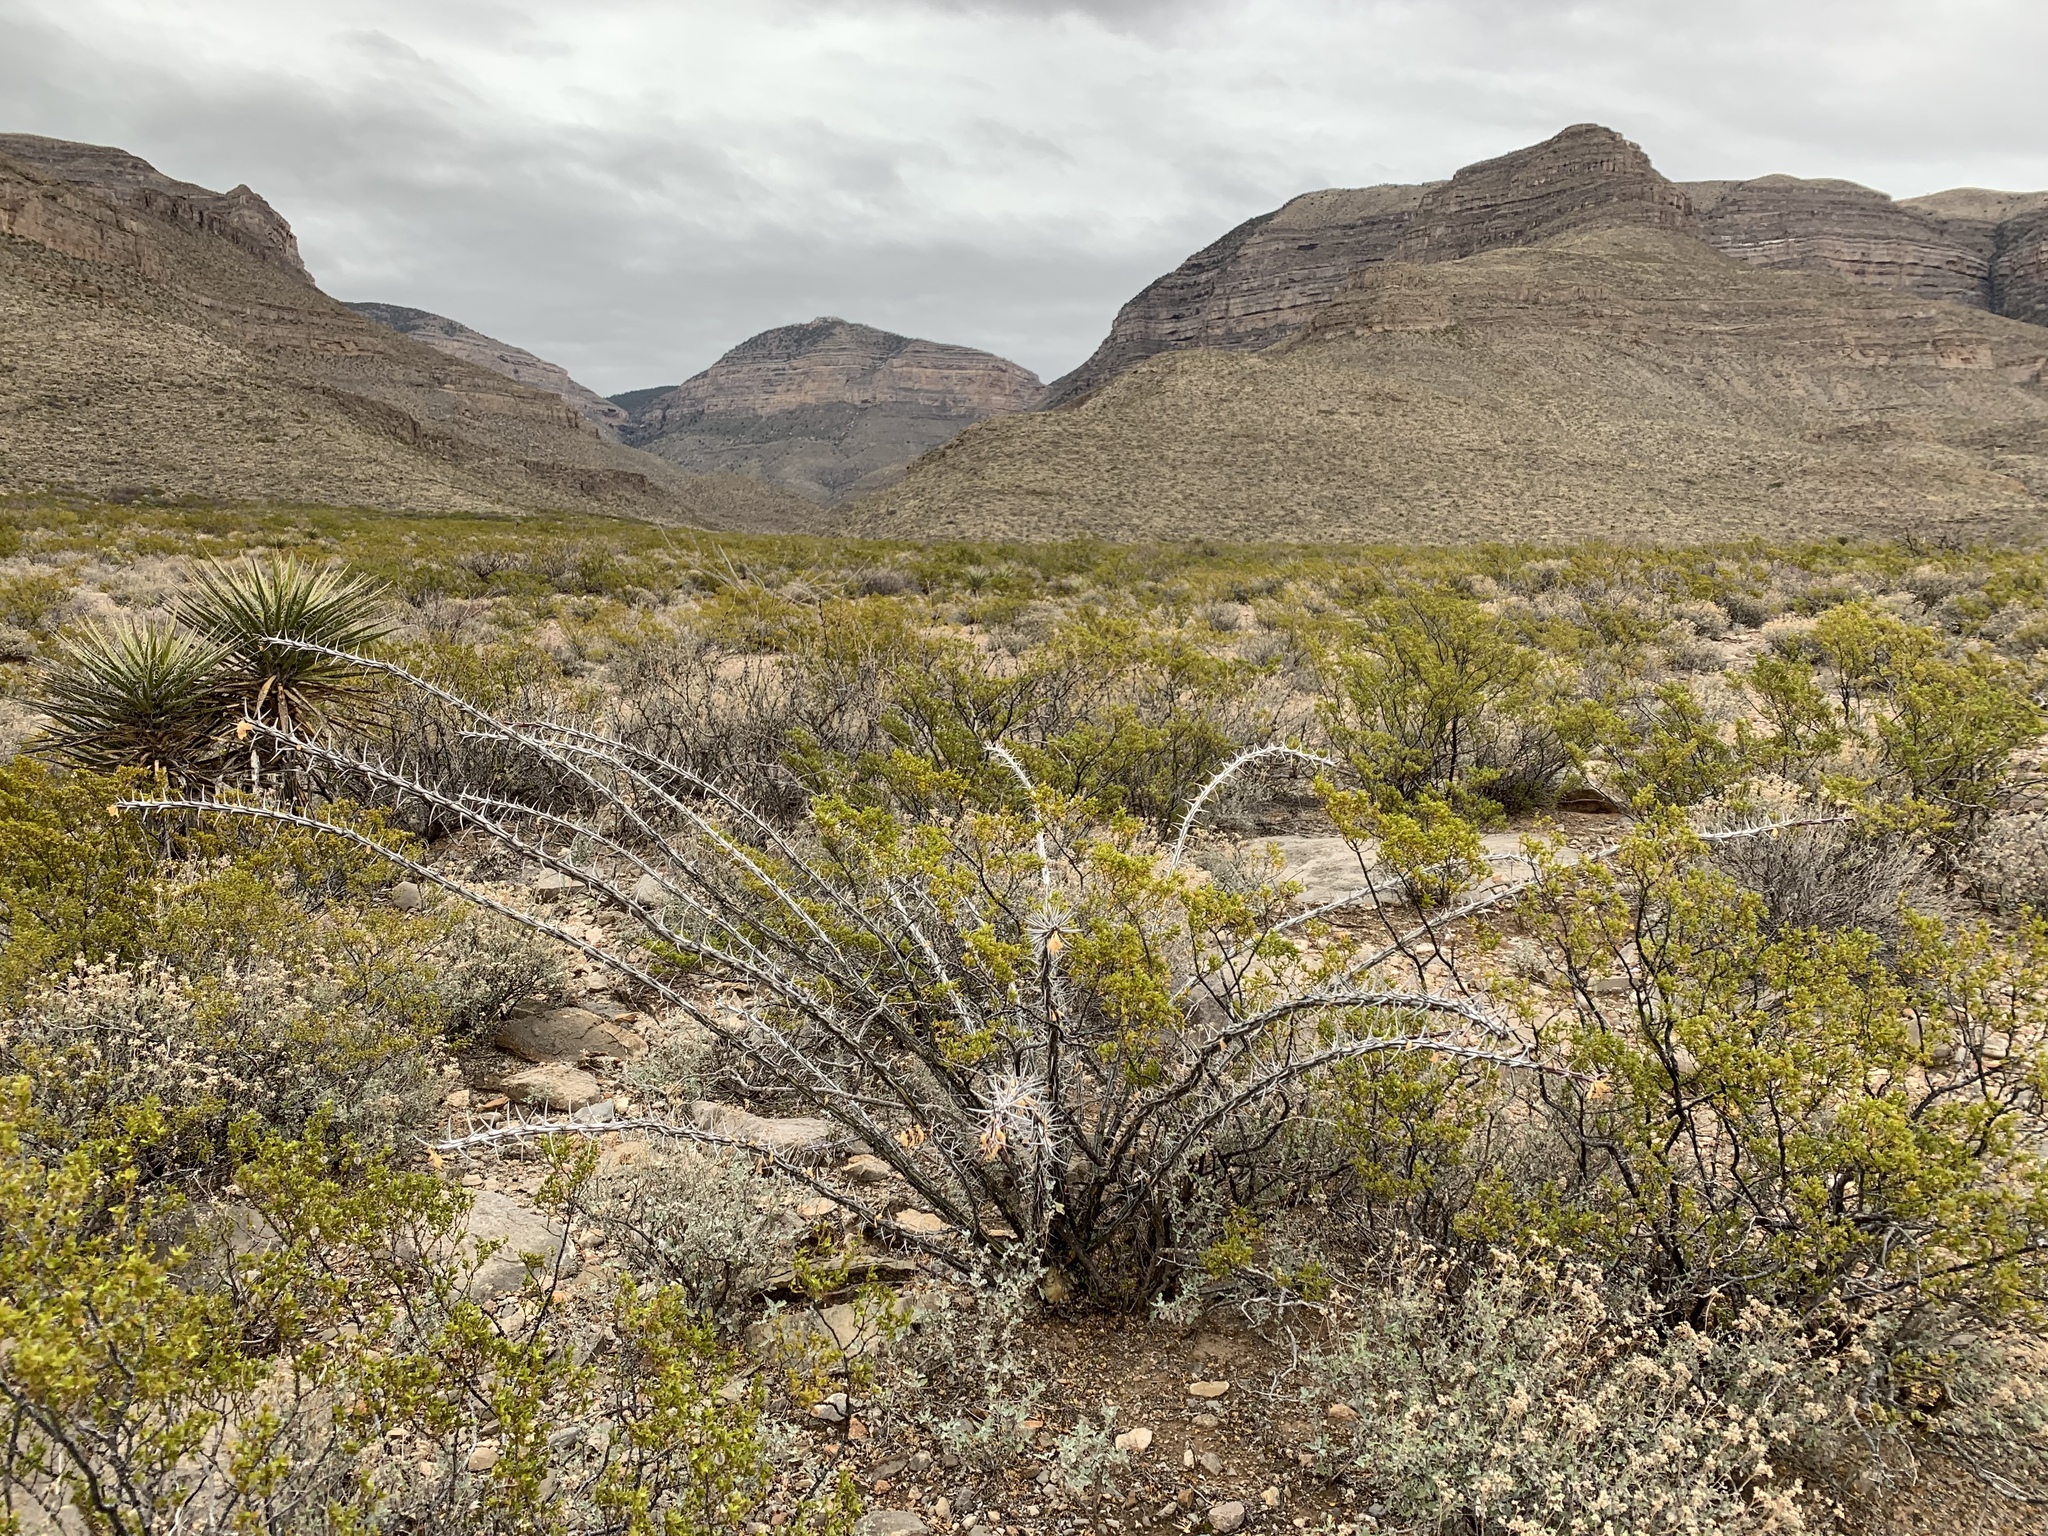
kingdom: Plantae
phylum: Tracheophyta
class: Magnoliopsida
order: Ericales
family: Fouquieriaceae
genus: Fouquieria
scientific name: Fouquieria splendens
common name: Vine-cactus
